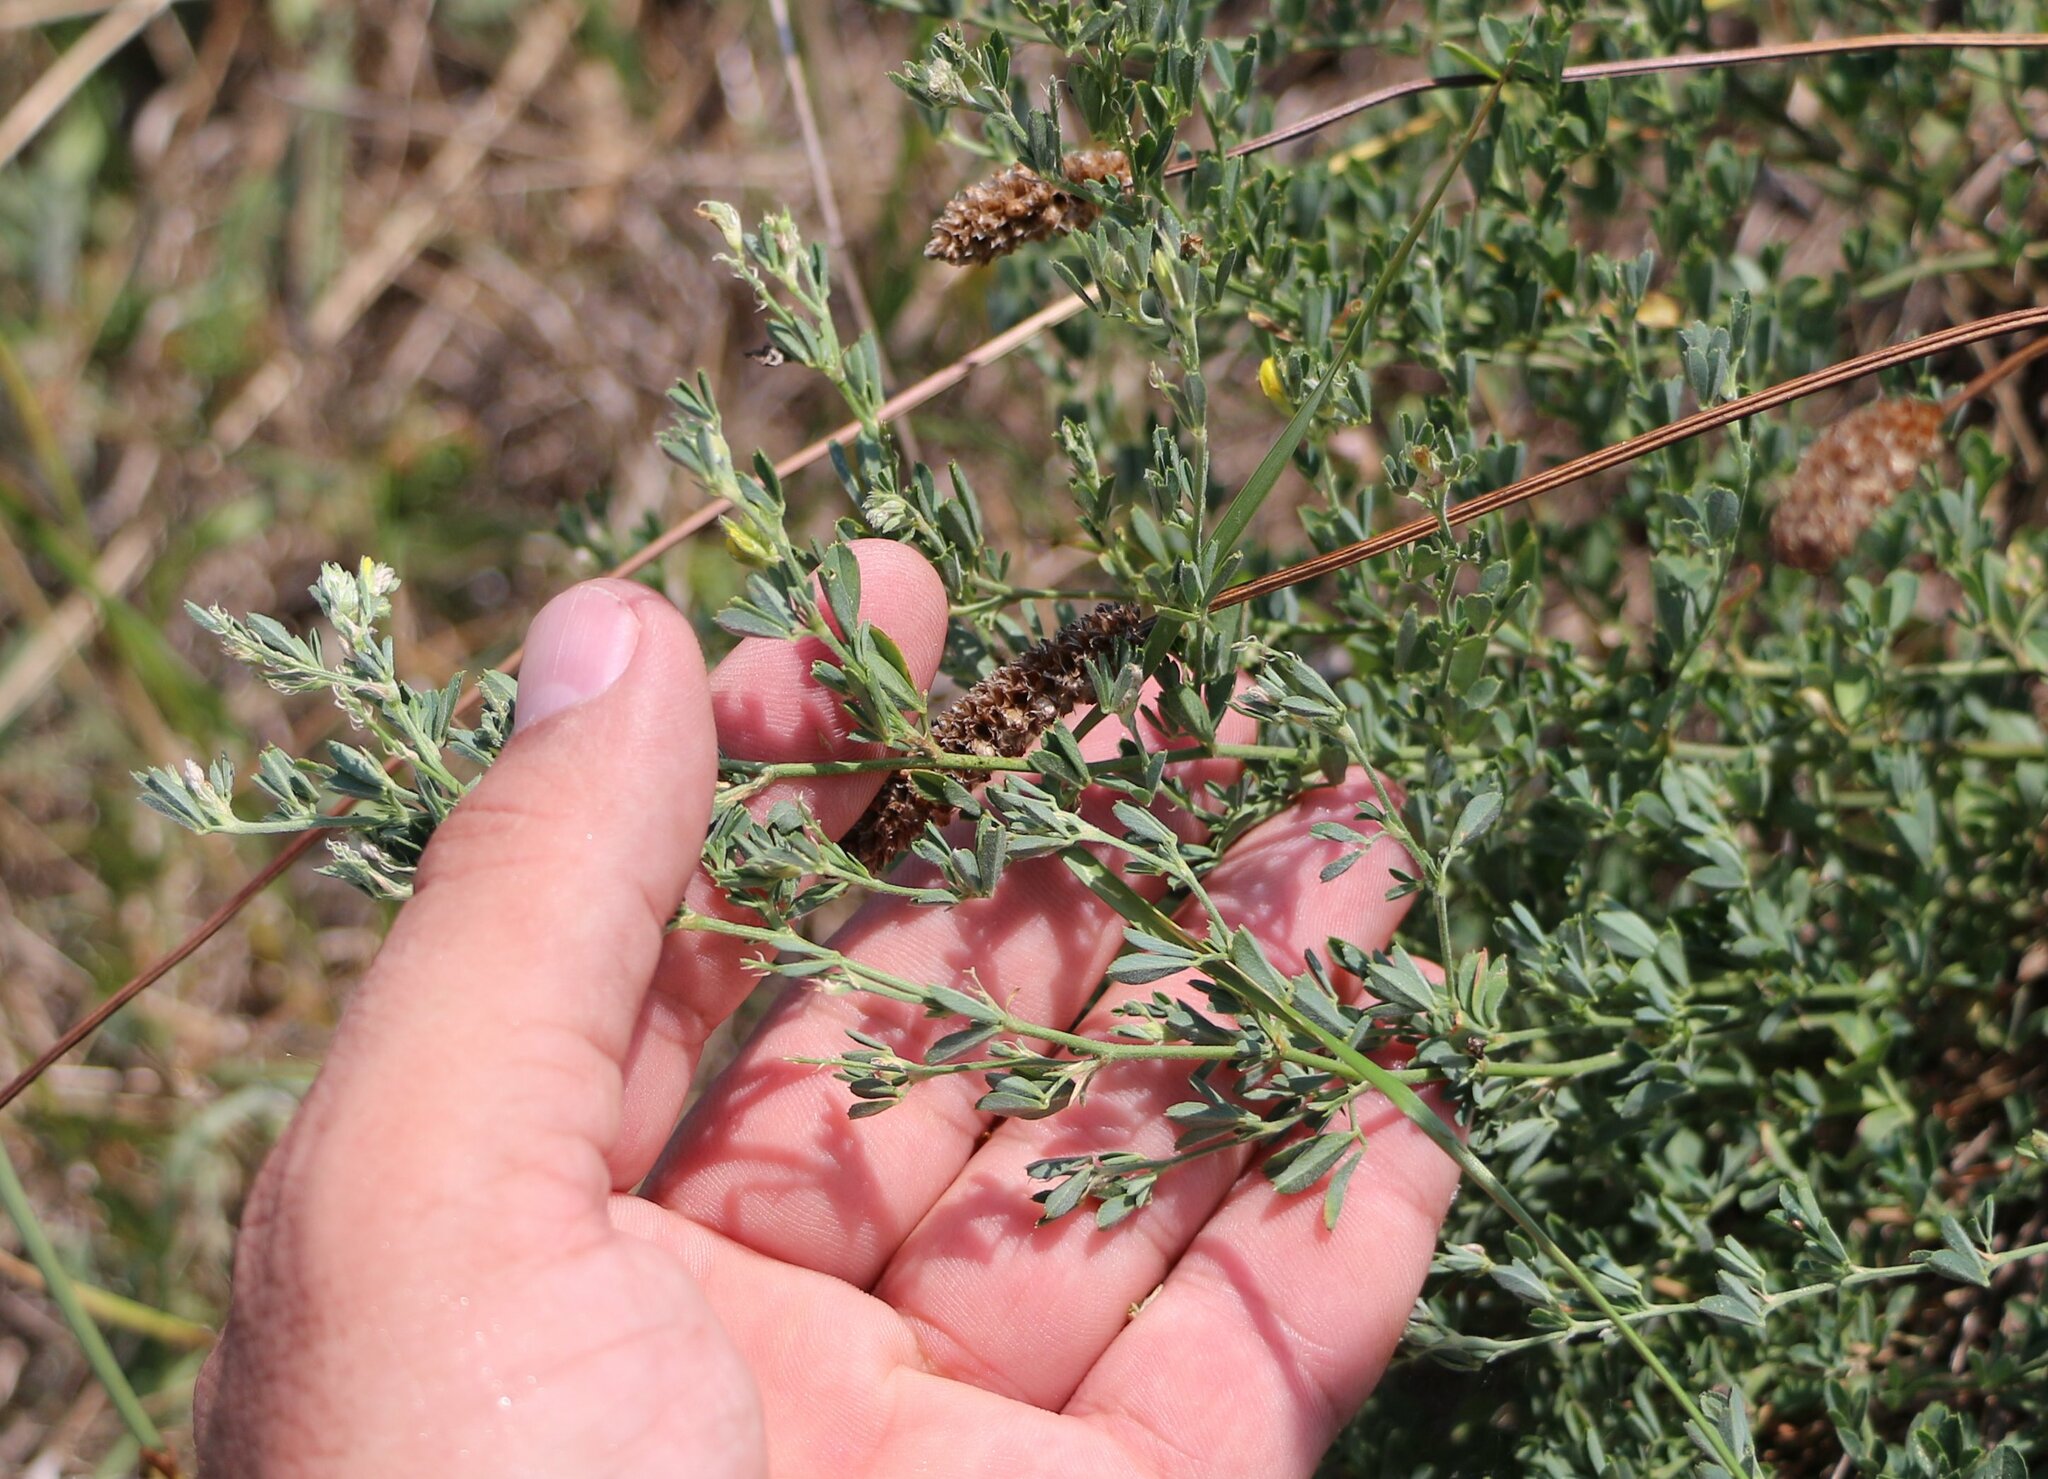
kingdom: Plantae
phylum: Tracheophyta
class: Magnoliopsida
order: Fabales
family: Fabaceae
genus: Medicago
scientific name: Medicago falcata
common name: Sickle medick
